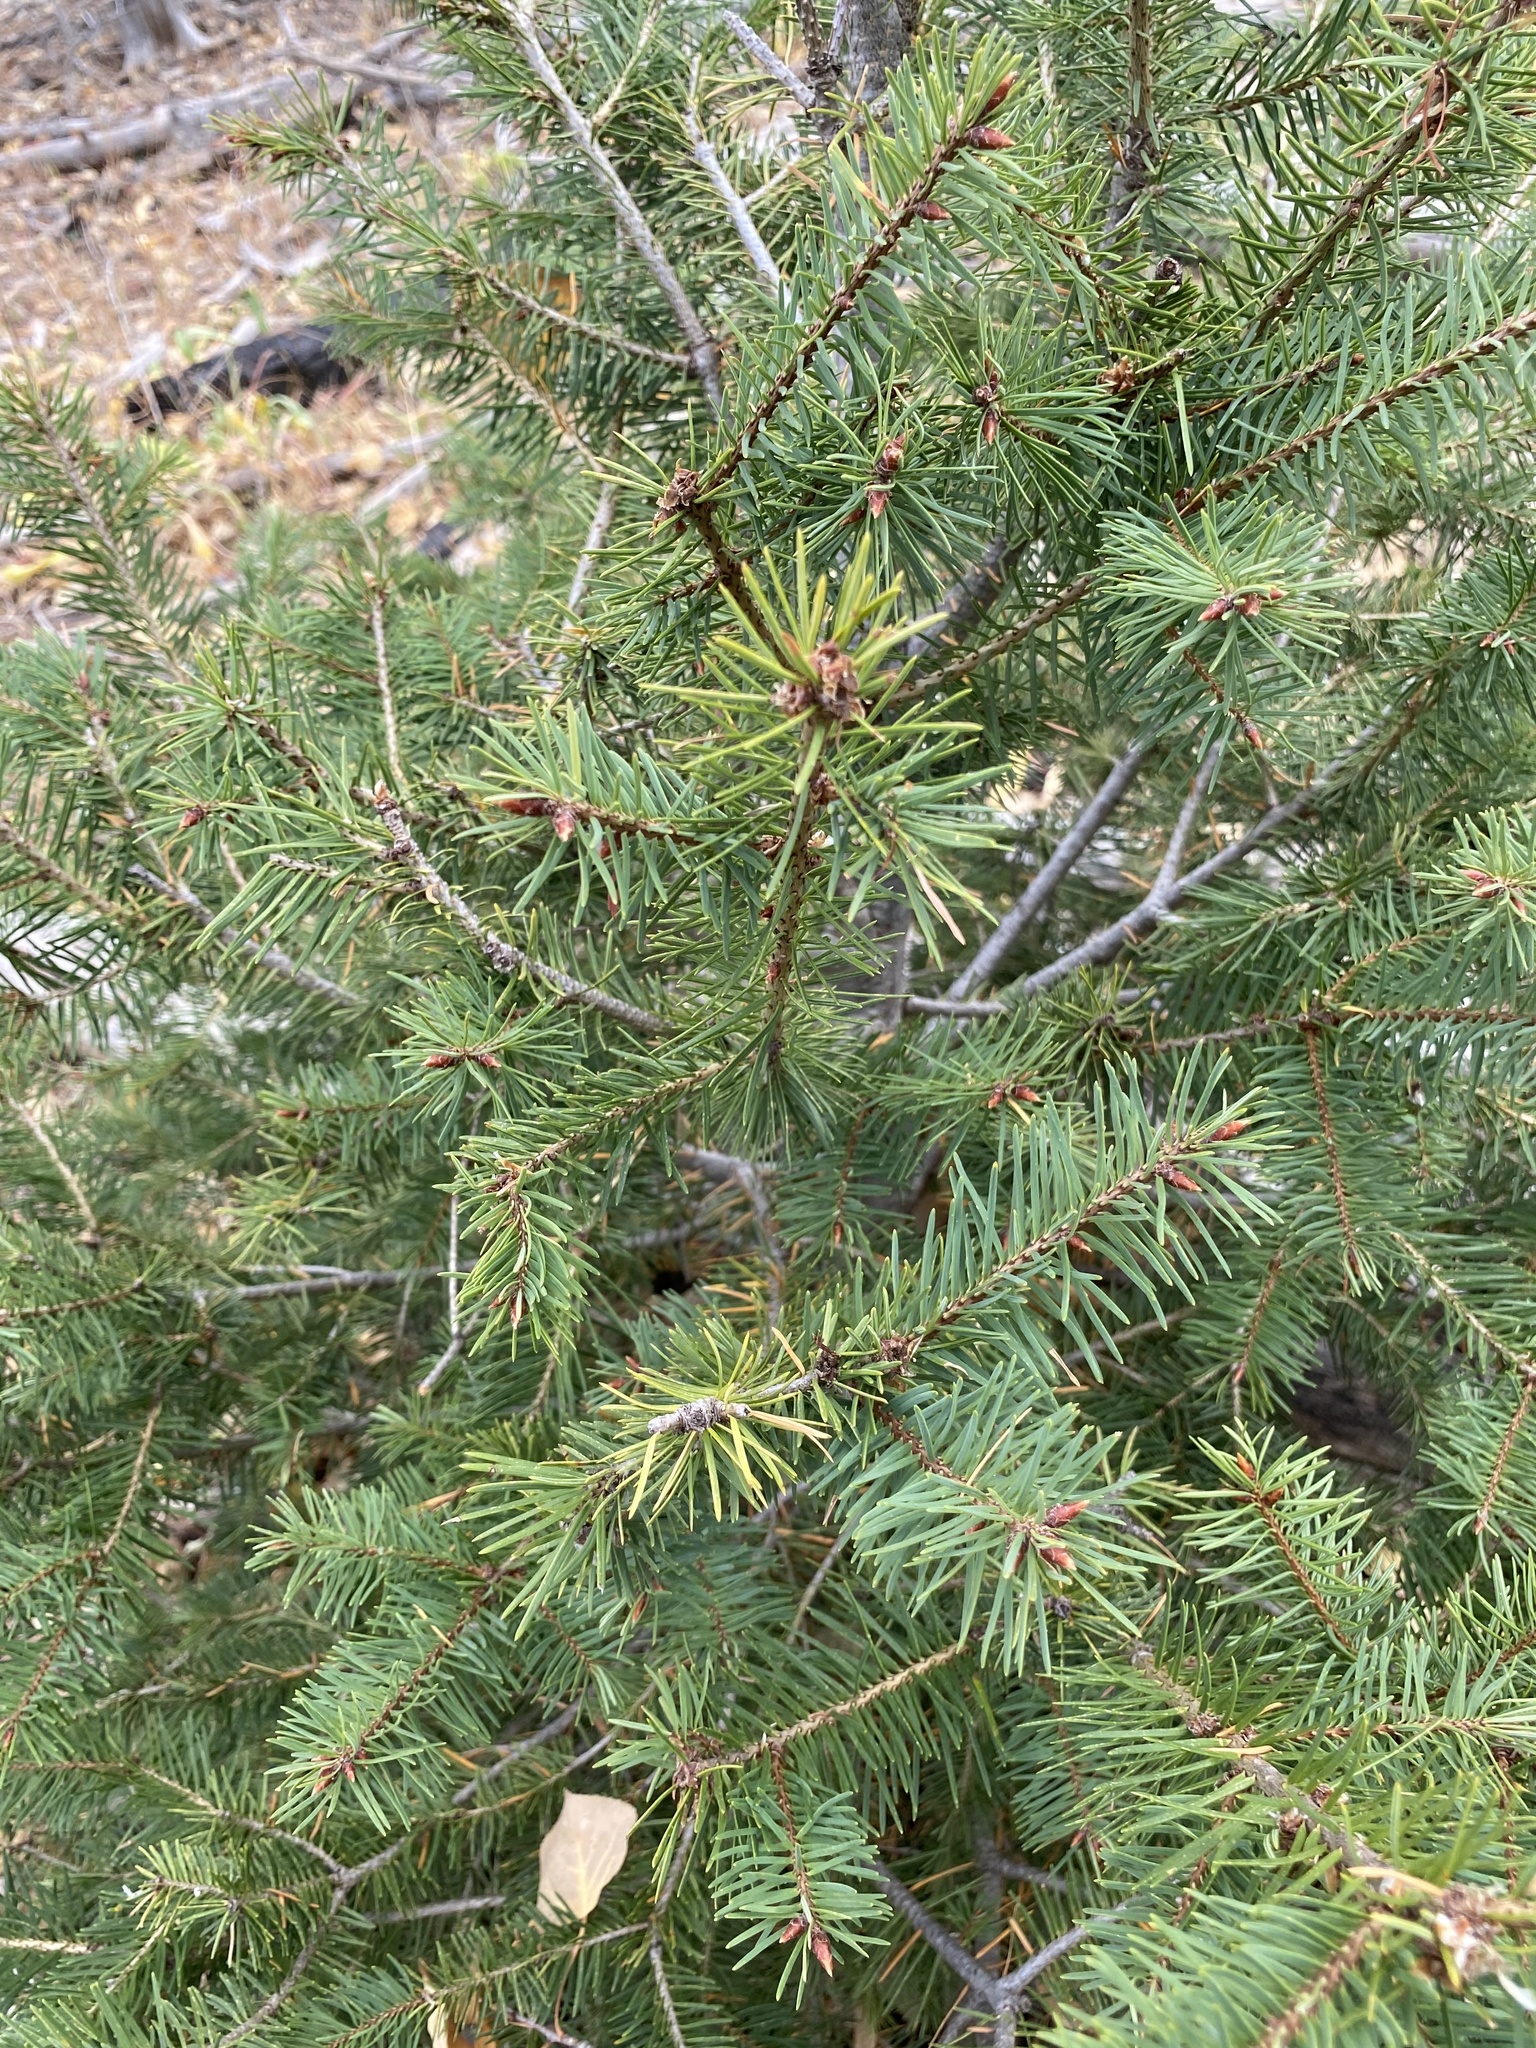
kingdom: Plantae
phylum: Tracheophyta
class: Pinopsida
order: Pinales
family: Pinaceae
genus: Pseudotsuga
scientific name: Pseudotsuga menziesii
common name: Douglas fir
